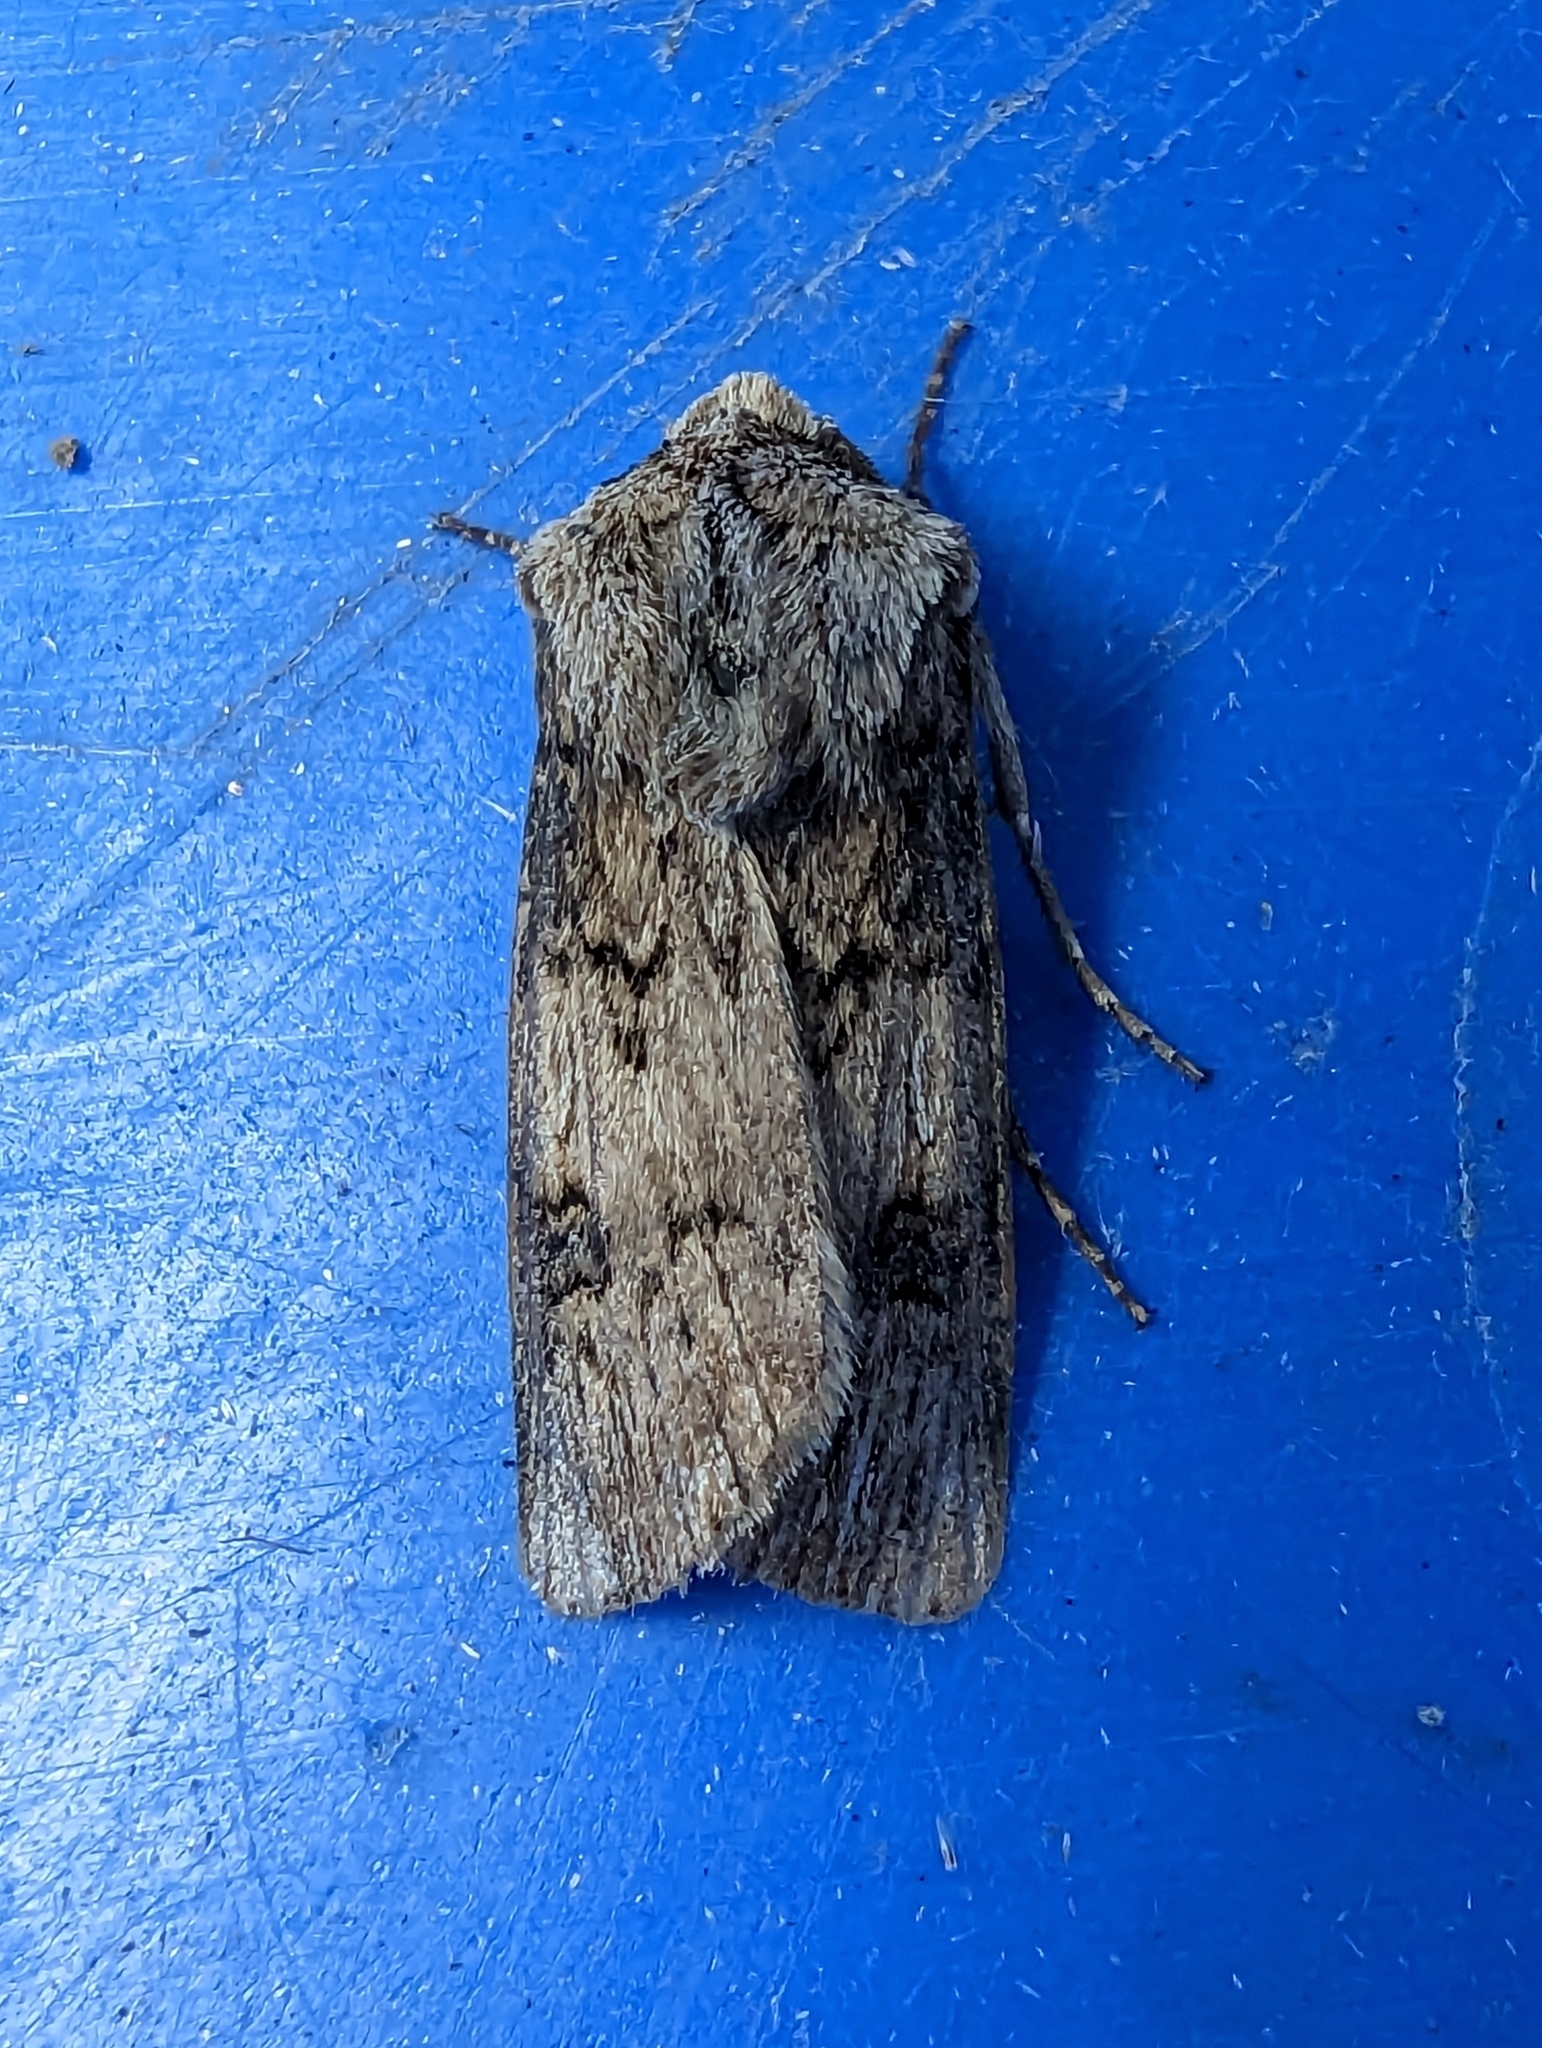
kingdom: Animalia
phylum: Arthropoda
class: Insecta
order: Lepidoptera
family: Noctuidae
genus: Agrotis
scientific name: Agrotis puta
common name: Shuttle-shaped dart
